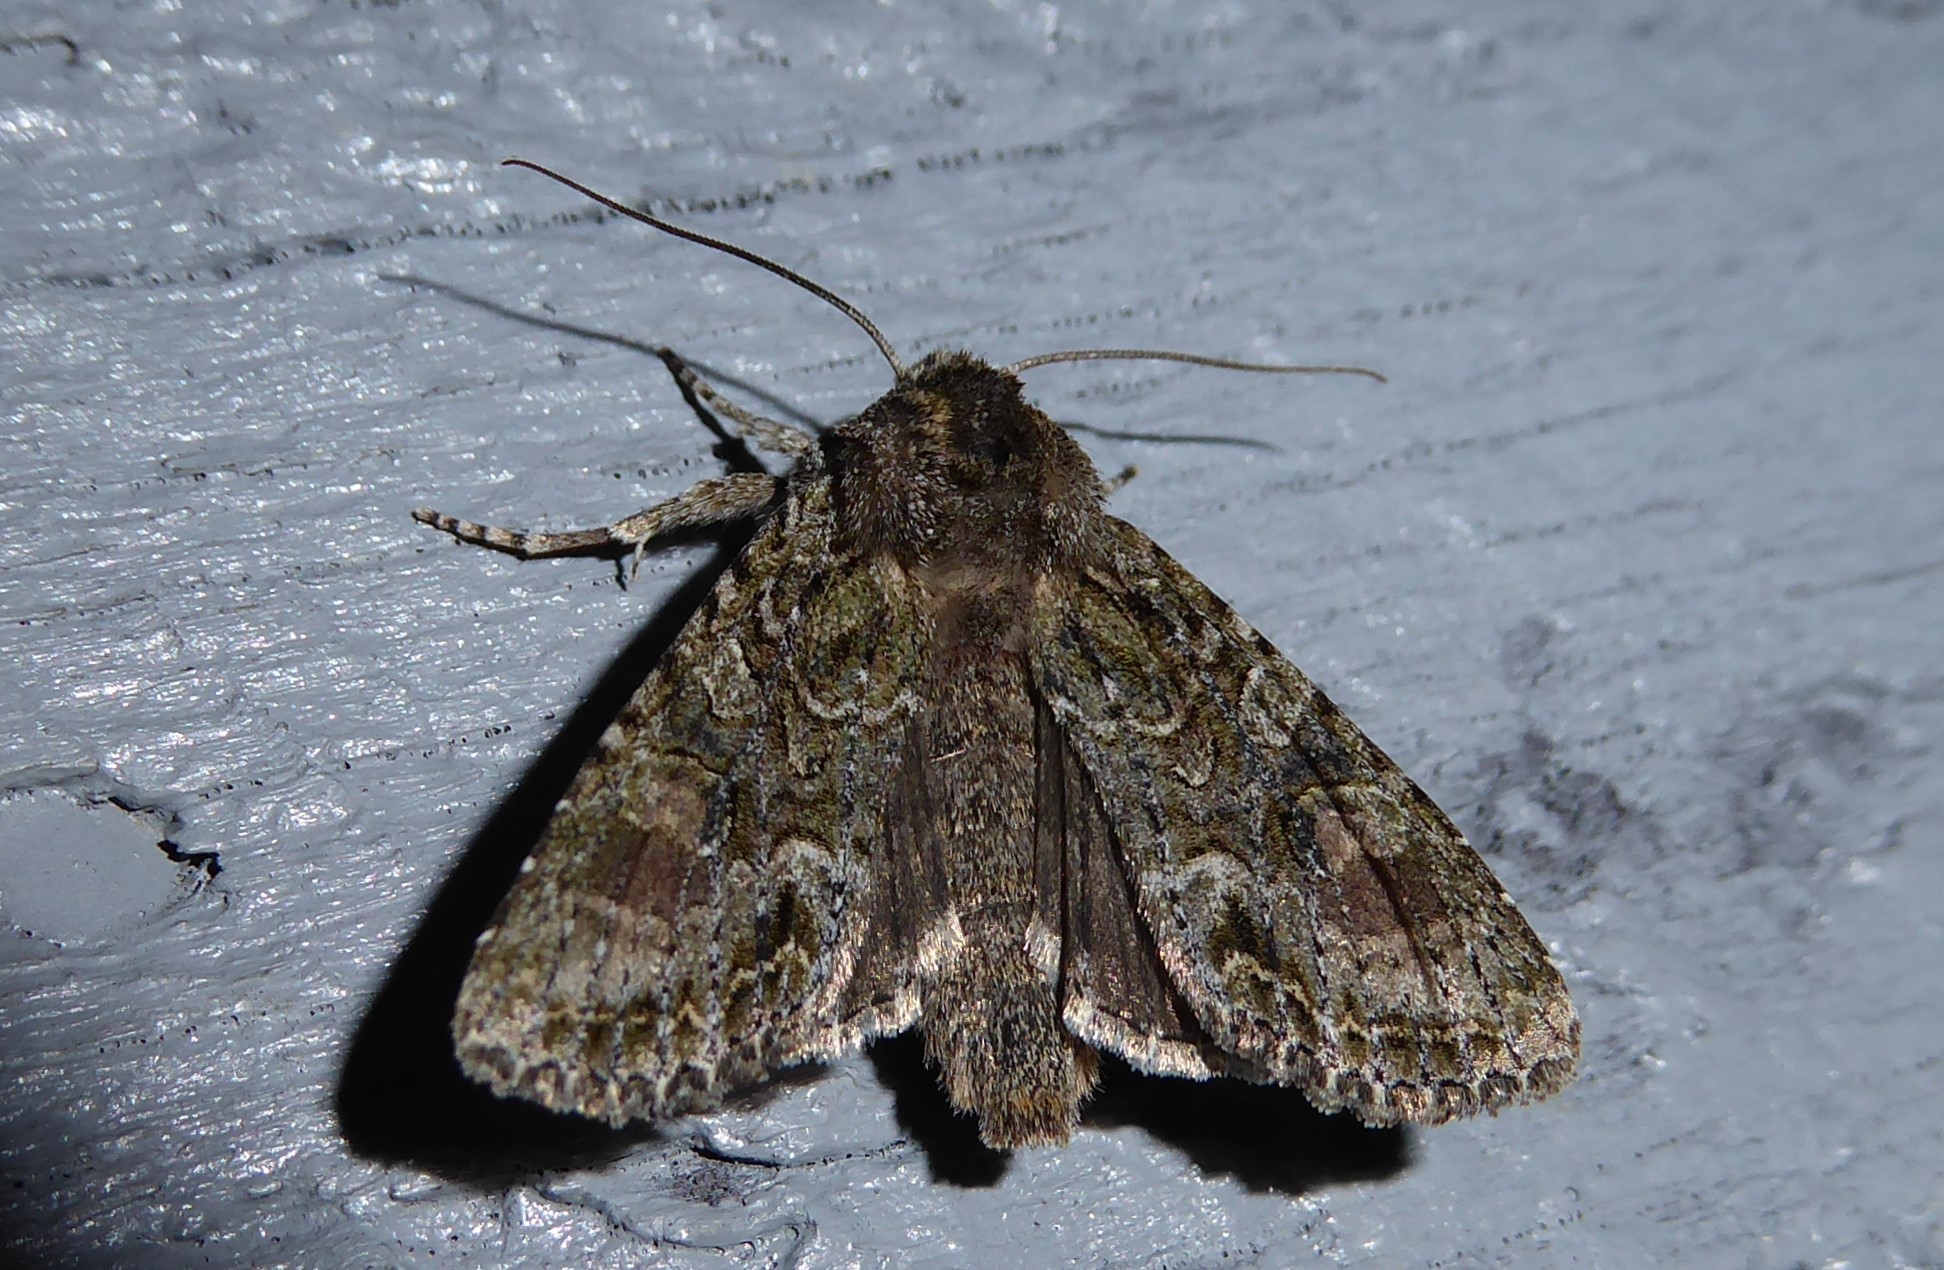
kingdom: Animalia
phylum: Arthropoda
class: Insecta
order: Lepidoptera
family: Noctuidae
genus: Ichneutica
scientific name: Ichneutica mutans
